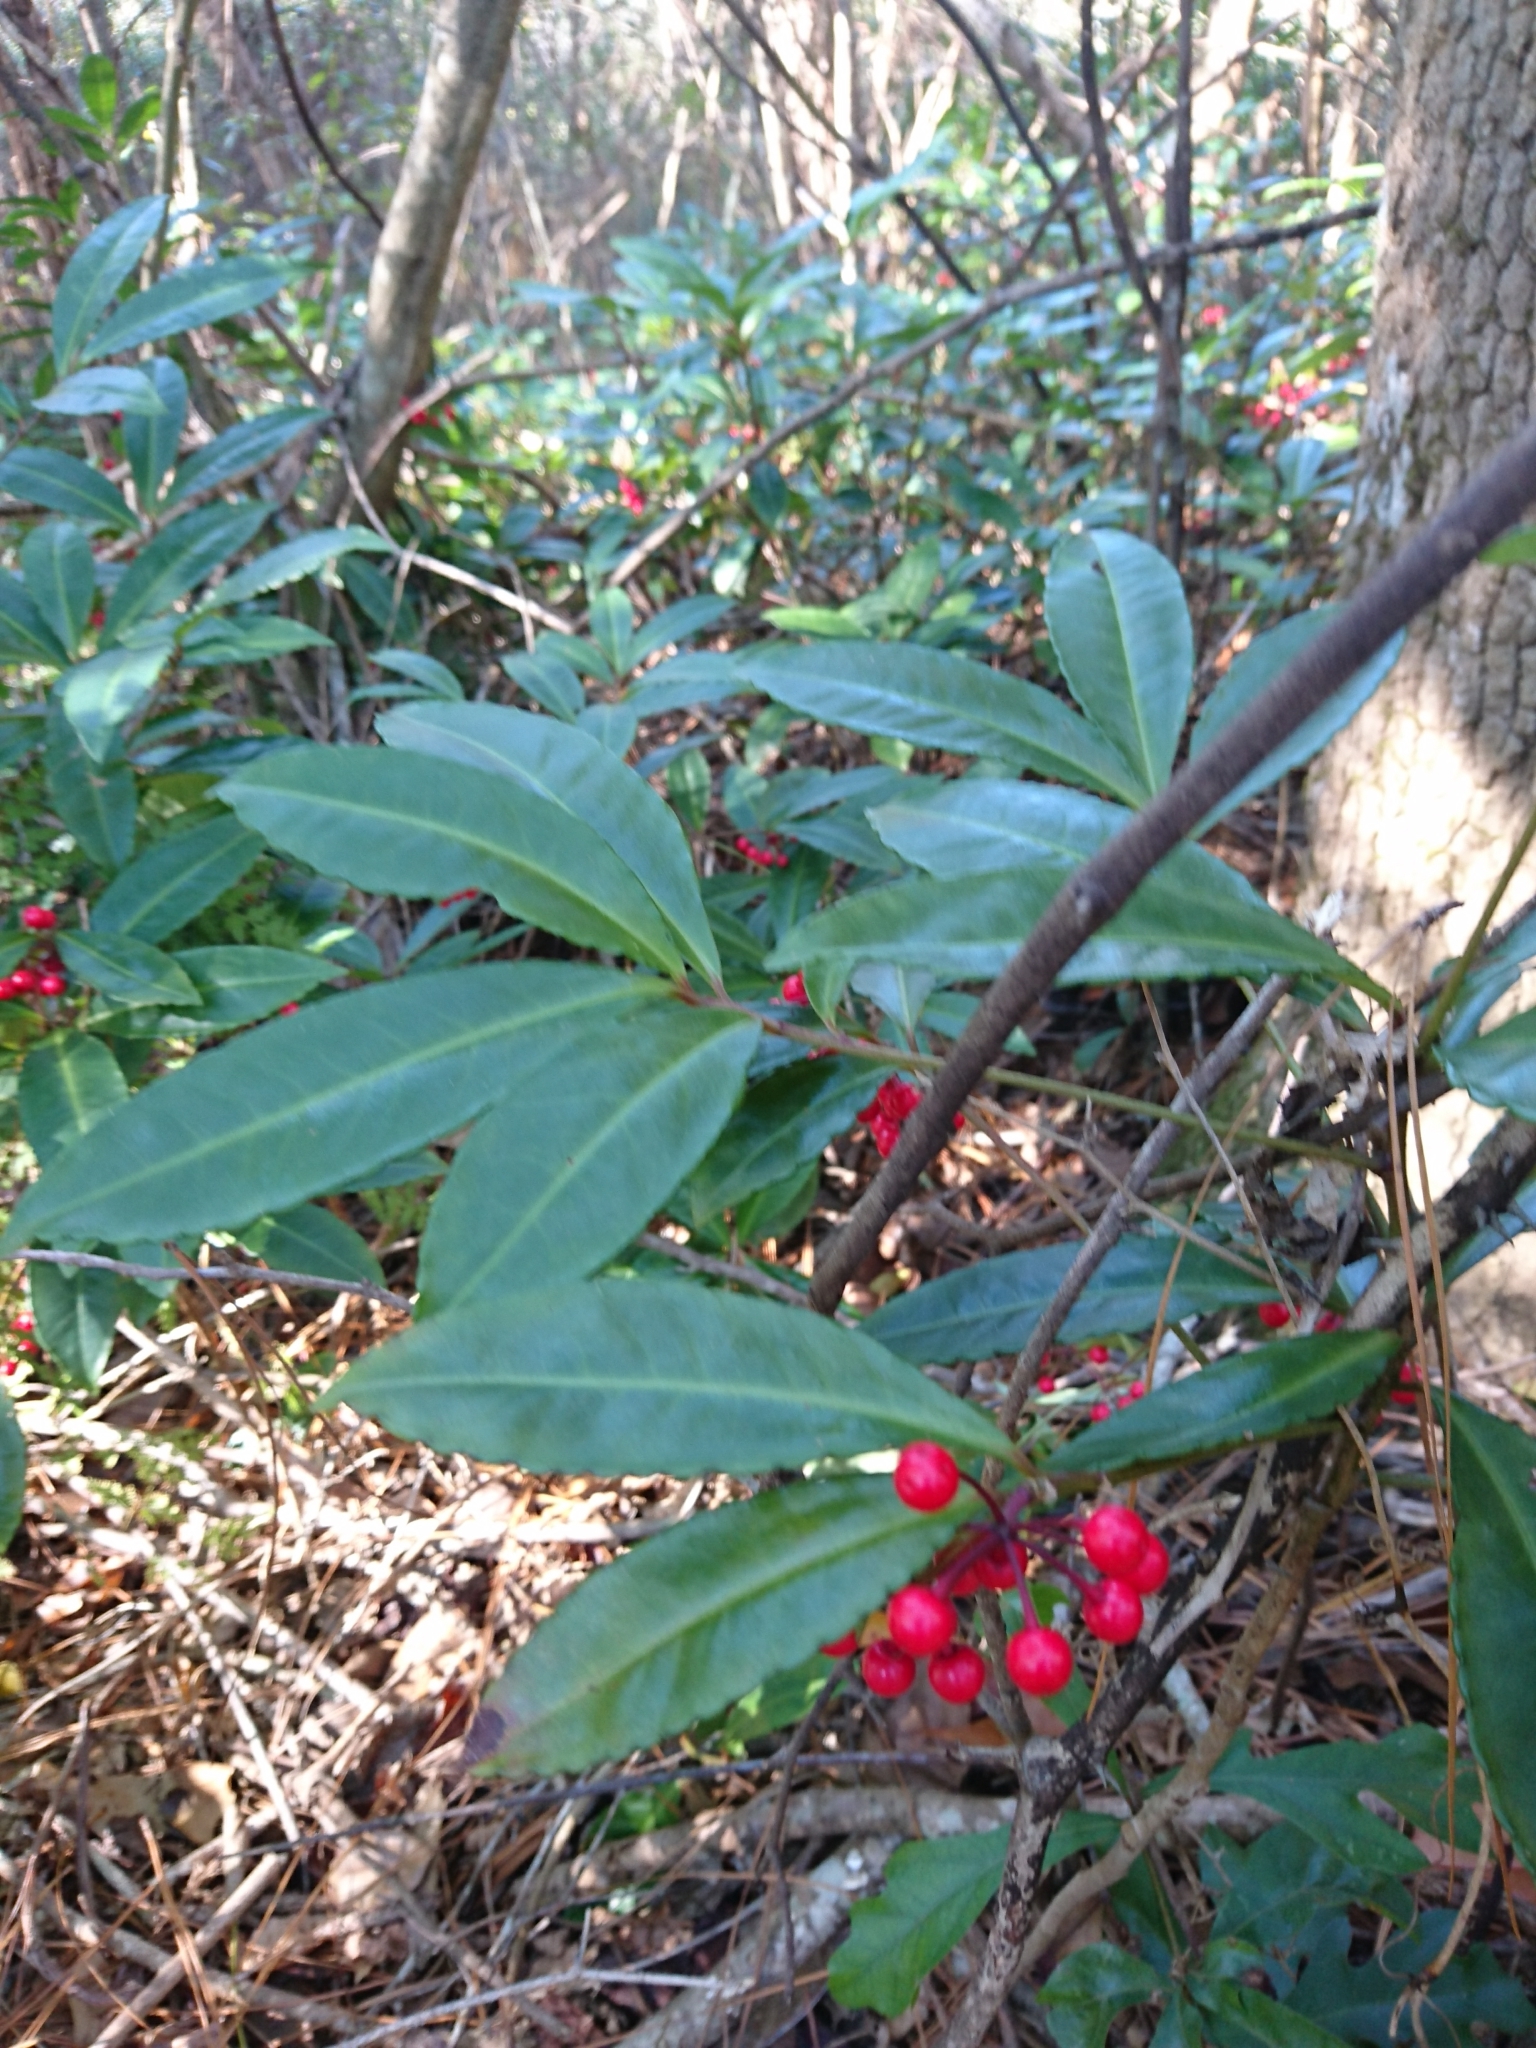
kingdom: Plantae
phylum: Tracheophyta
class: Magnoliopsida
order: Ericales
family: Primulaceae
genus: Ardisia
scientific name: Ardisia crenata
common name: Hen's eyes
